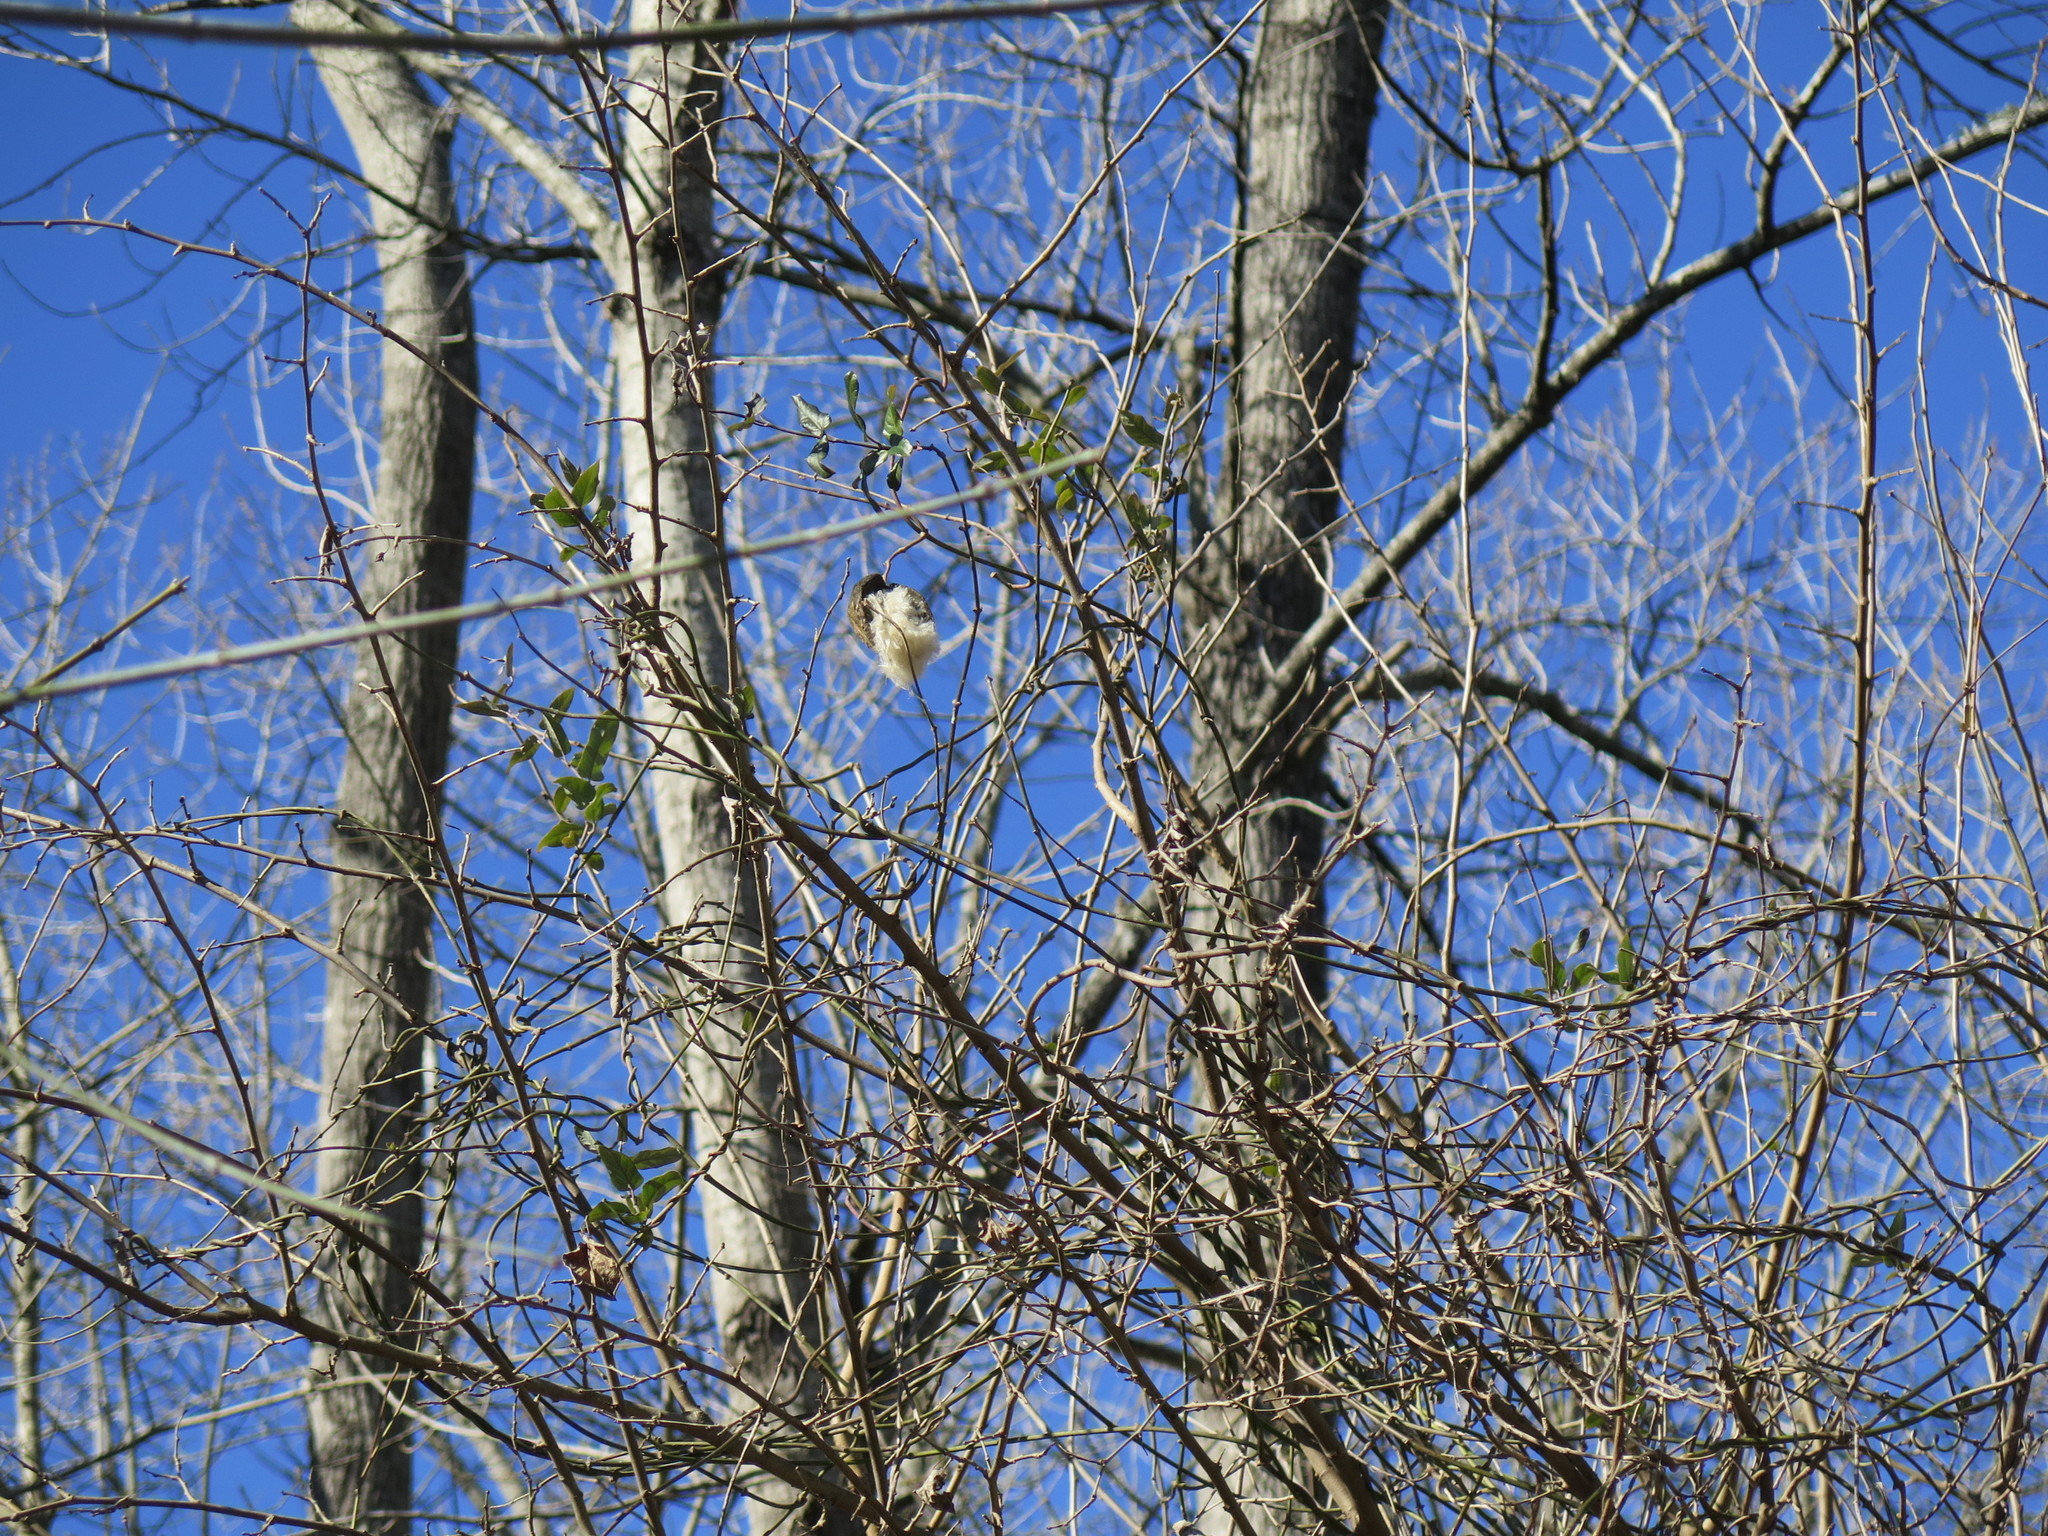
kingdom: Plantae
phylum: Tracheophyta
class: Magnoliopsida
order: Gentianales
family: Apocynaceae
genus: Araujia
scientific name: Araujia sericifera
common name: White bladderflower
